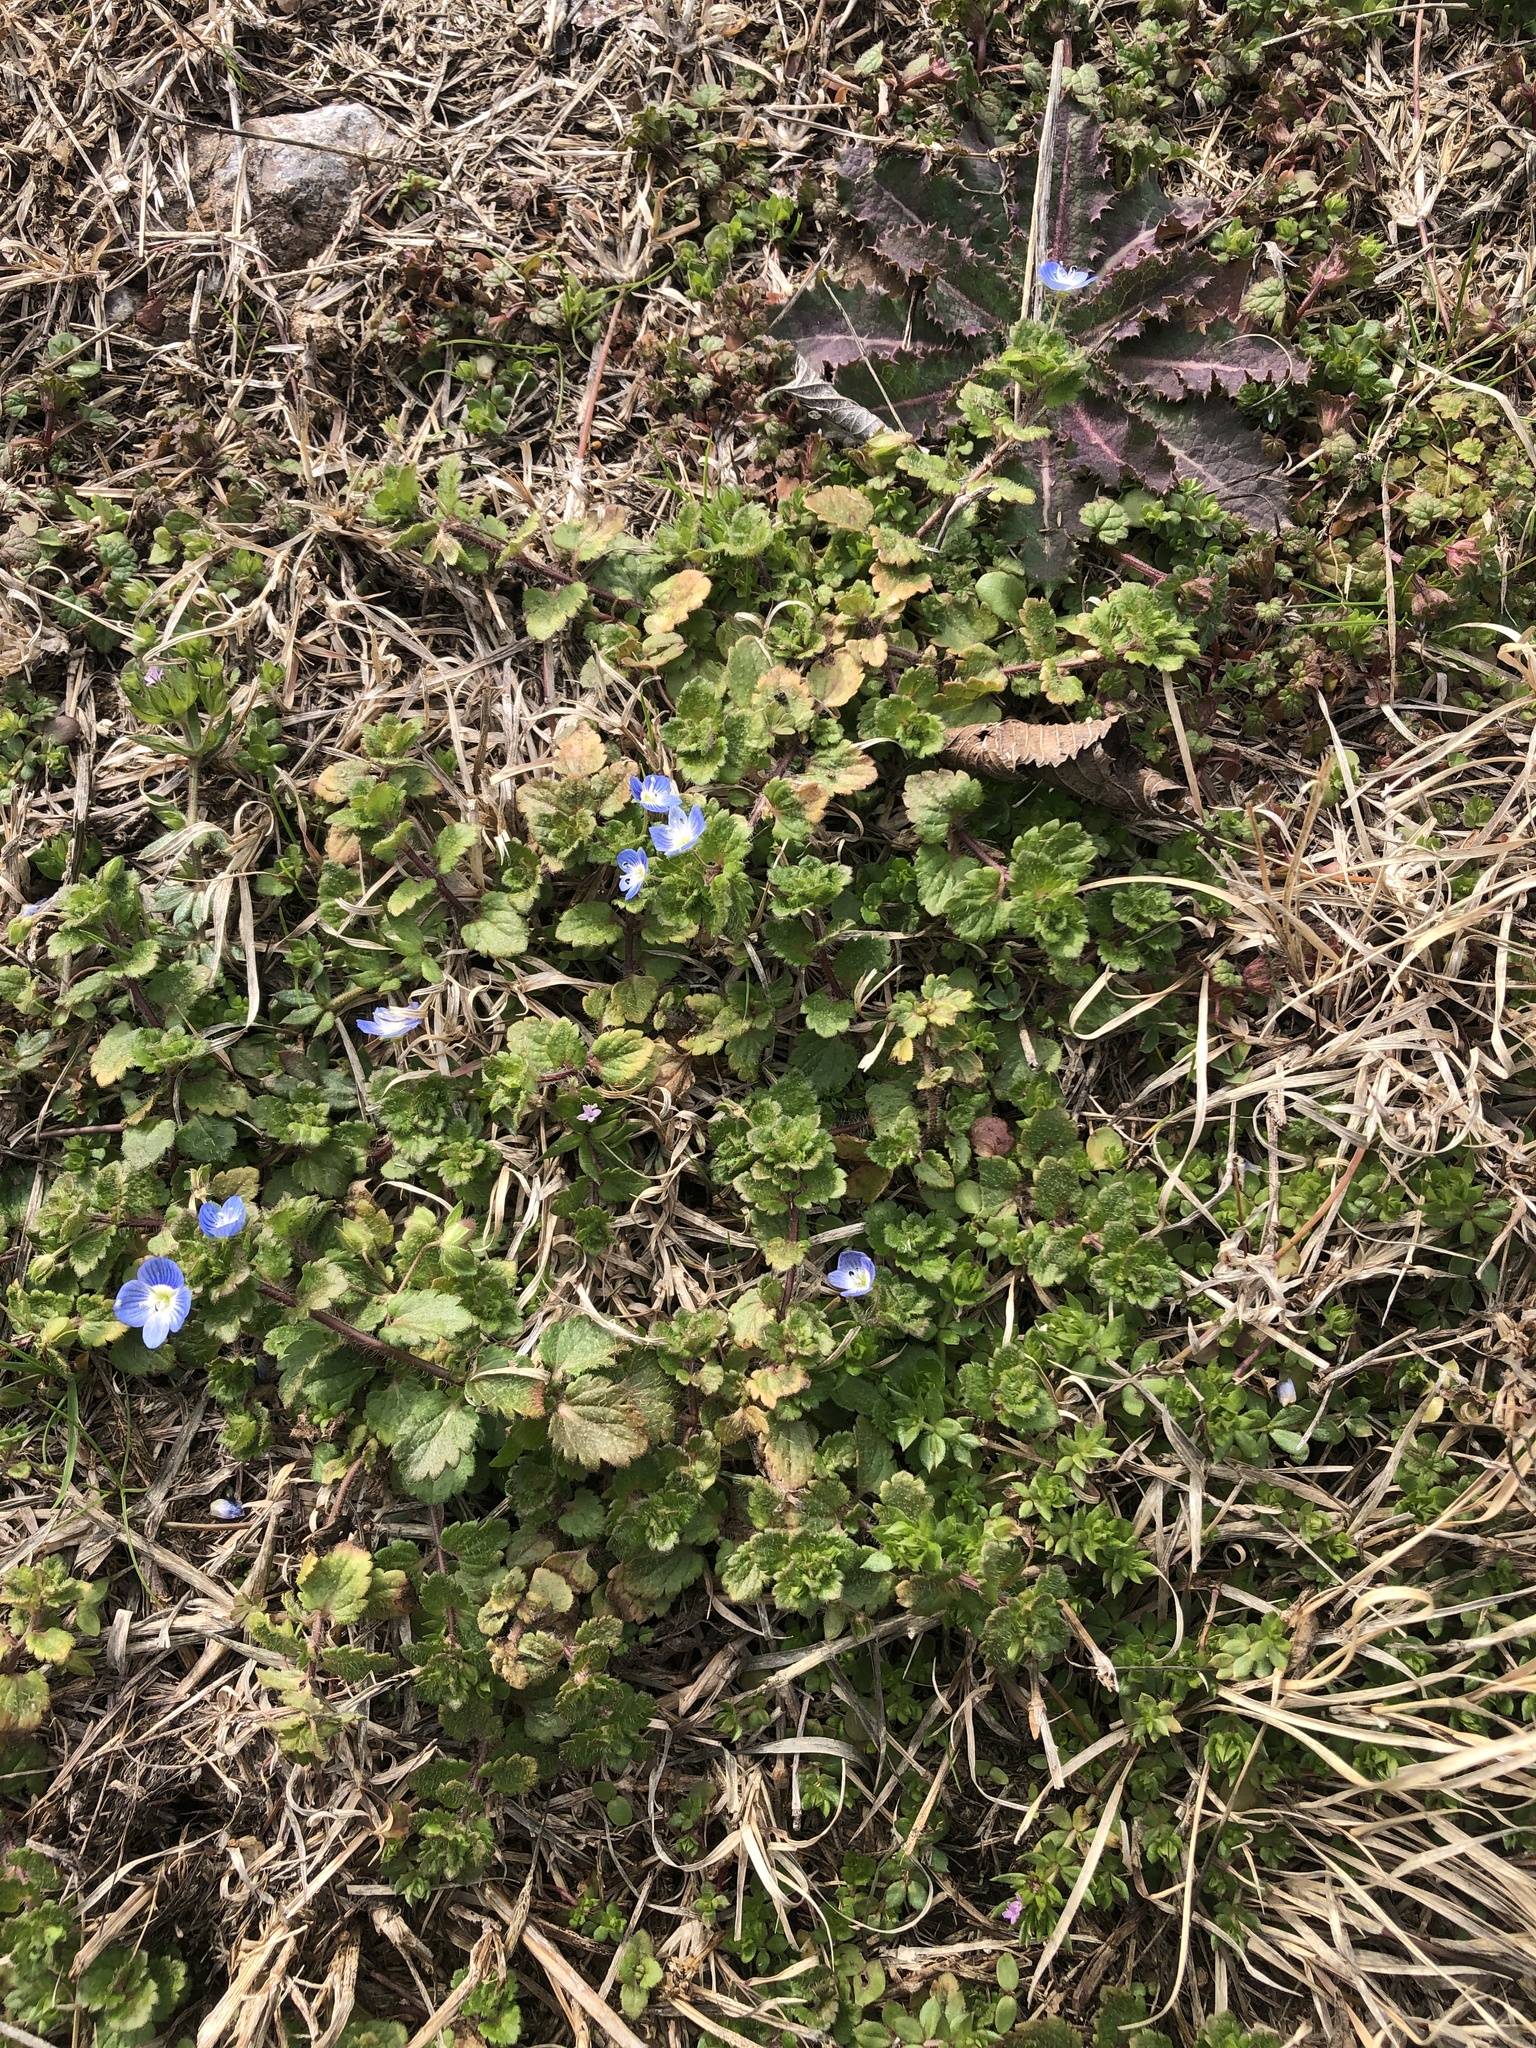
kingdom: Plantae
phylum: Tracheophyta
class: Magnoliopsida
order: Lamiales
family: Plantaginaceae
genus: Veronica
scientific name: Veronica persica
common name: Common field-speedwell
